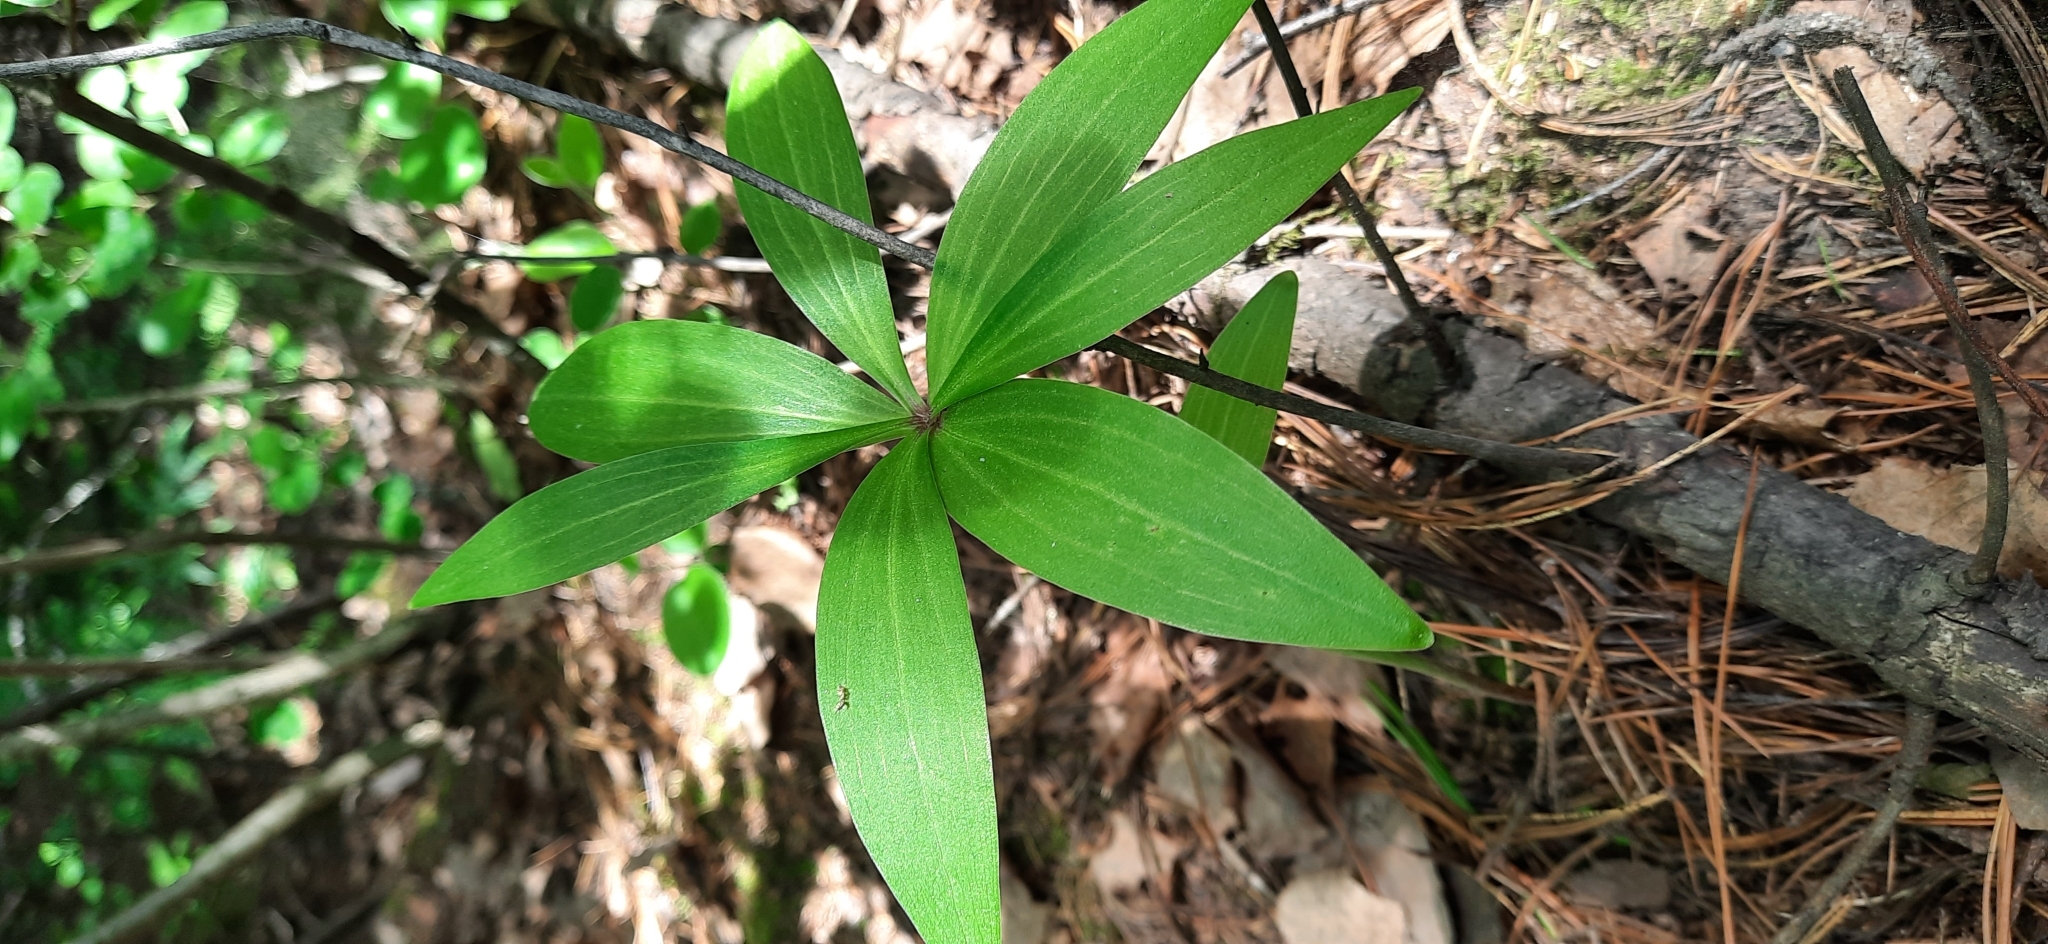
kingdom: Plantae
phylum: Tracheophyta
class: Liliopsida
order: Liliales
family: Liliaceae
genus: Lilium
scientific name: Lilium martagon
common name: Martagon lily
